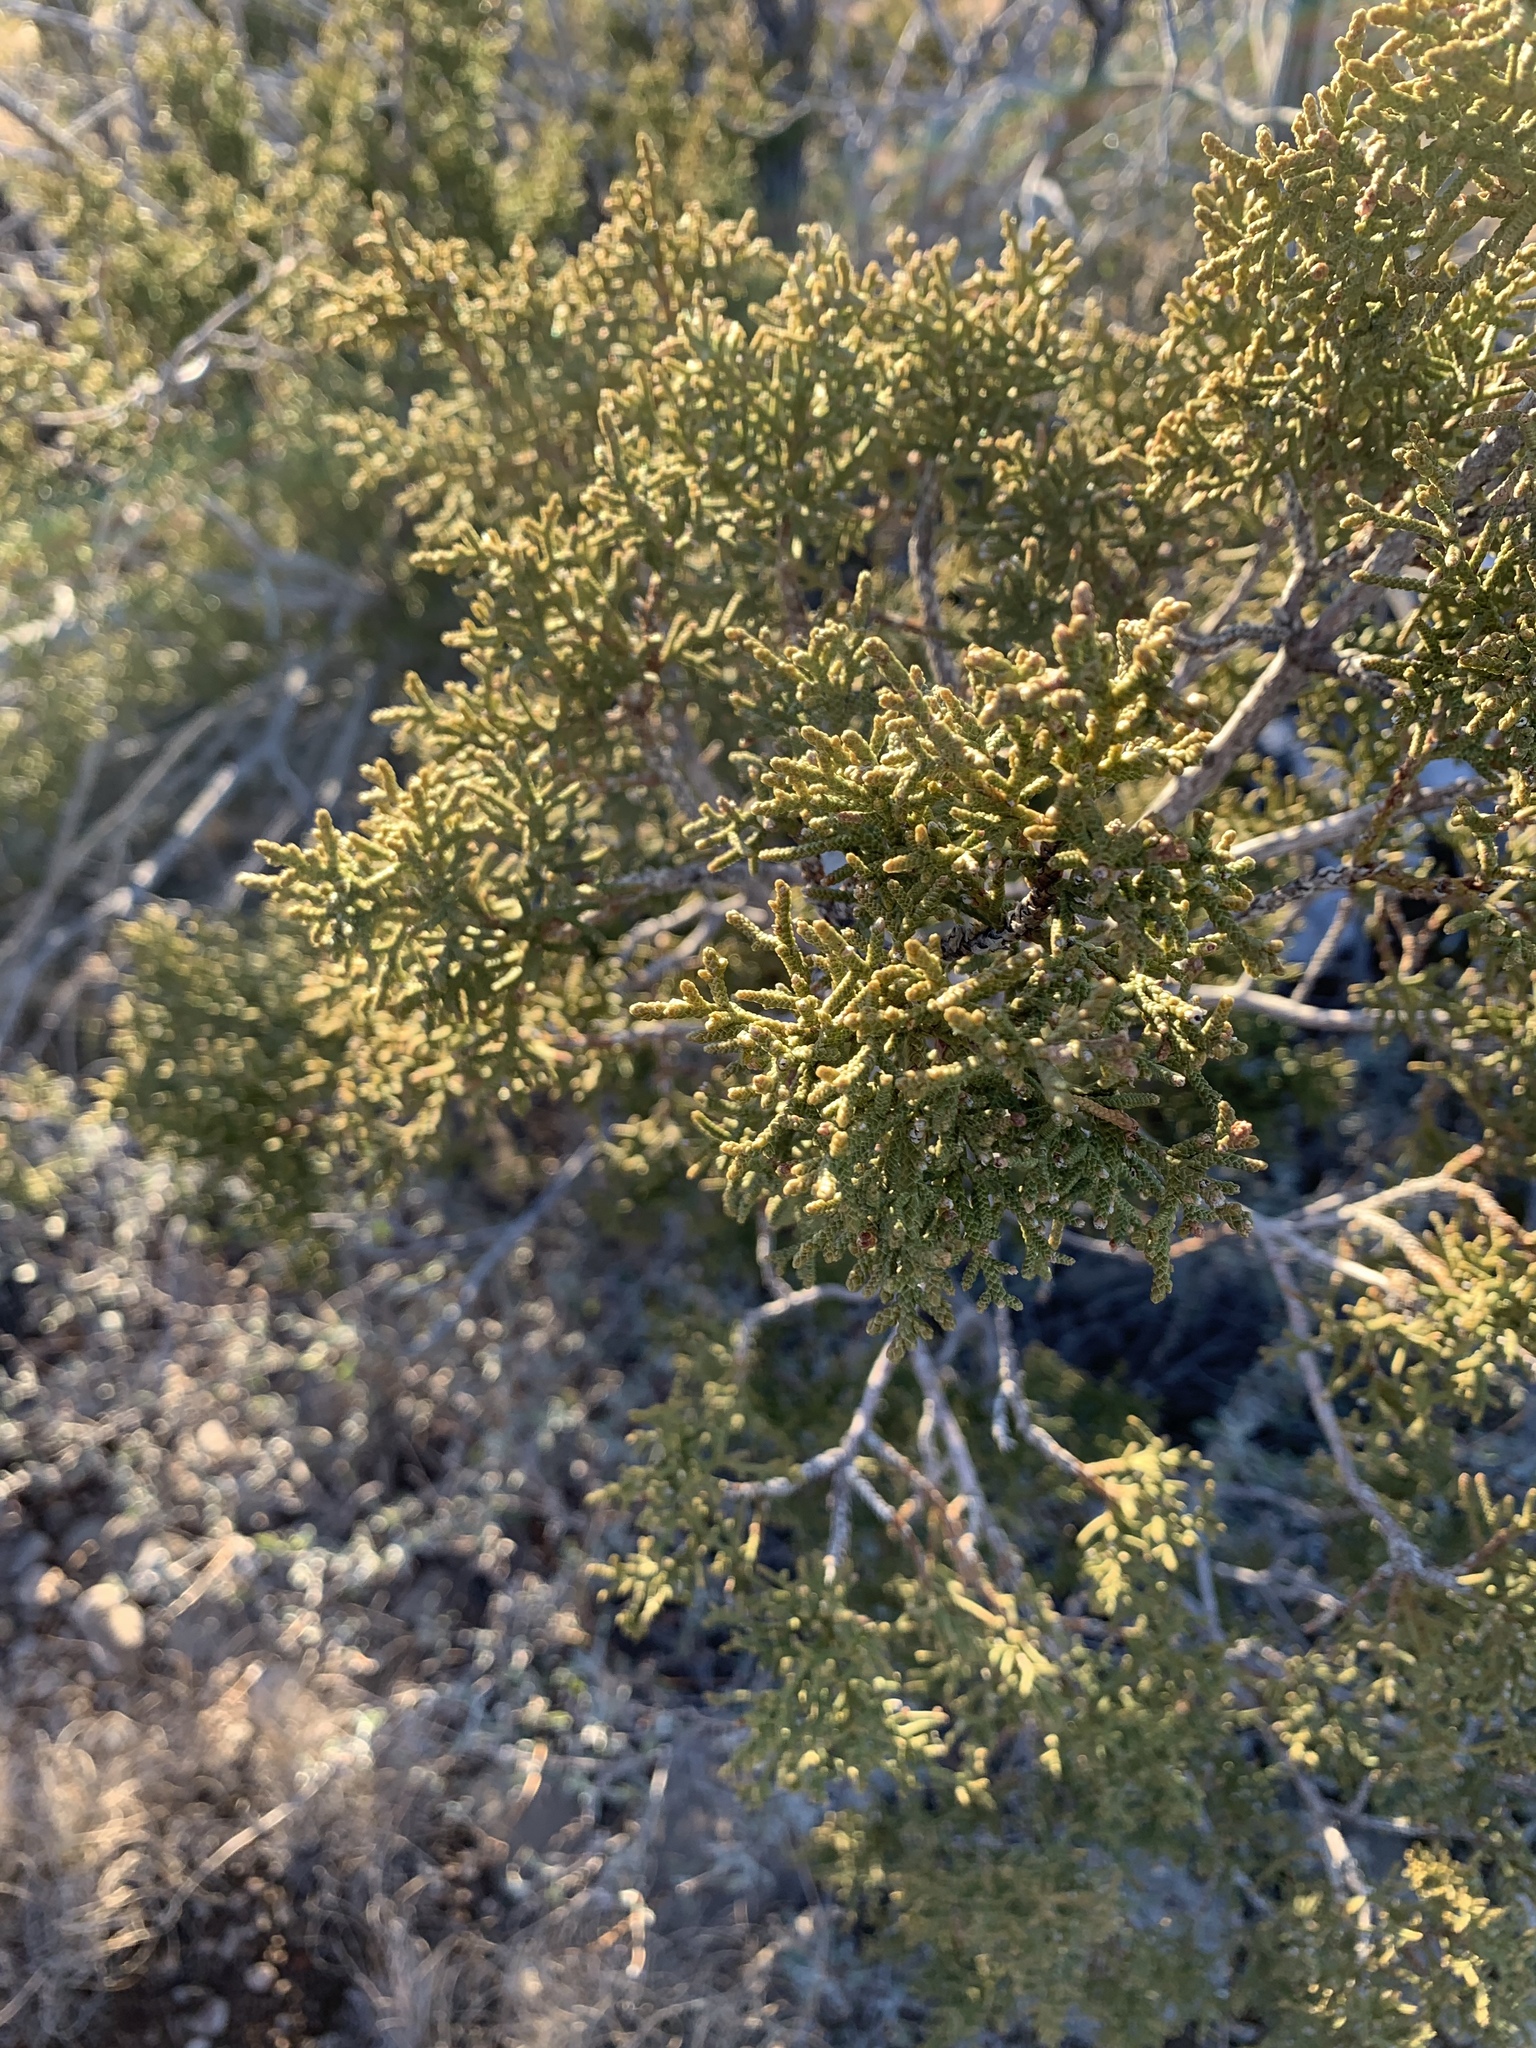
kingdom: Plantae
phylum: Tracheophyta
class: Pinopsida
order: Pinales
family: Cupressaceae
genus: Juniperus
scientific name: Juniperus monosperma
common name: One-seed juniper
